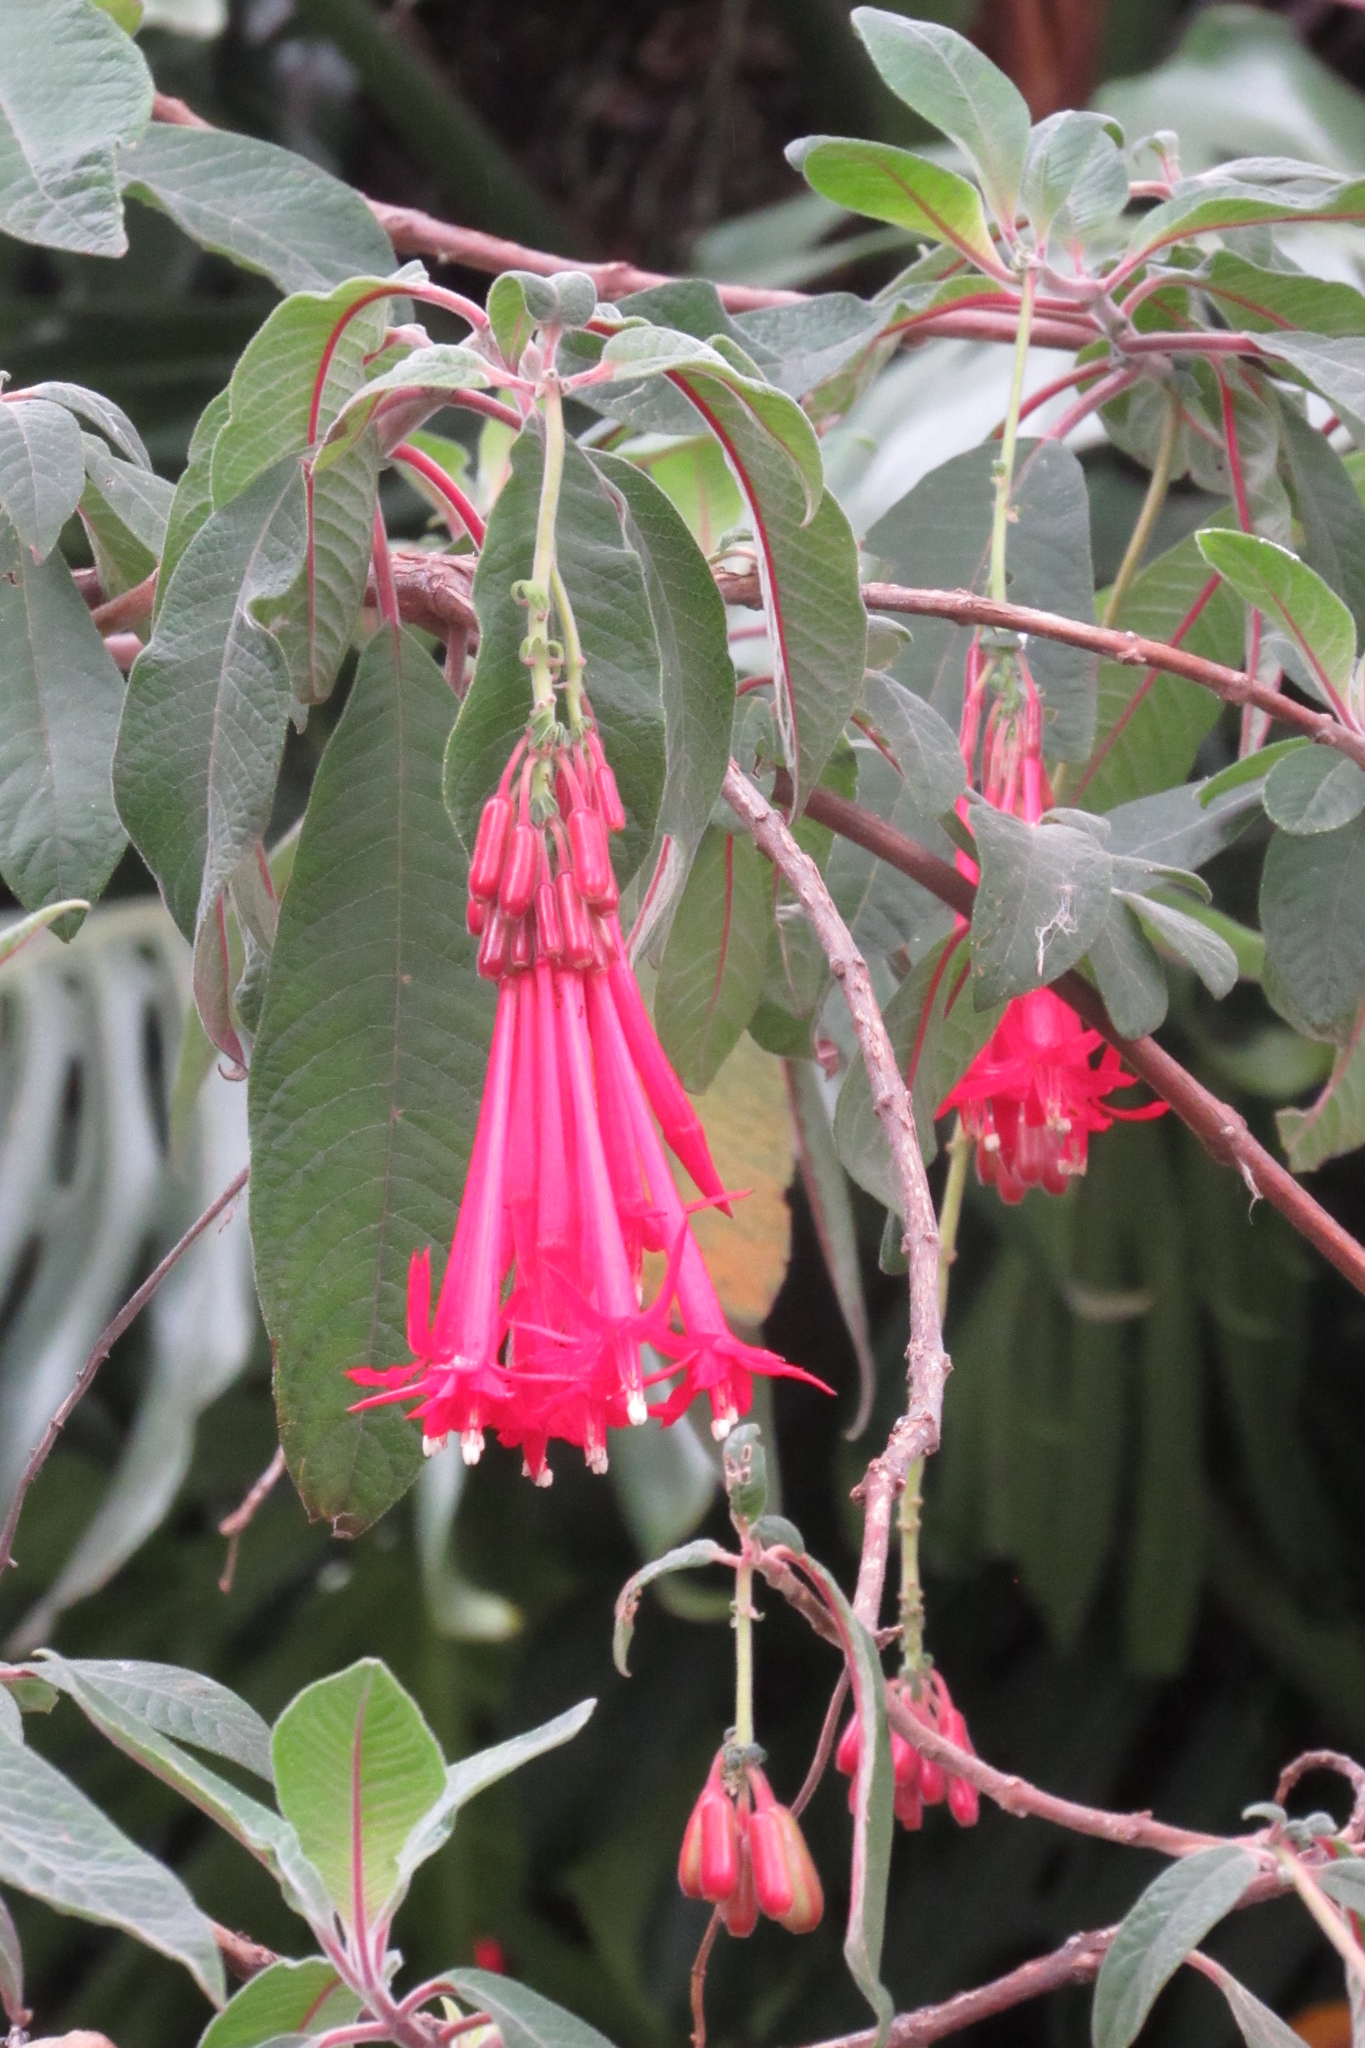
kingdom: Plantae
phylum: Tracheophyta
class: Magnoliopsida
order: Myrtales
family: Onagraceae
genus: Fuchsia
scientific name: Fuchsia boliviana
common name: Bolivian fuchsia
